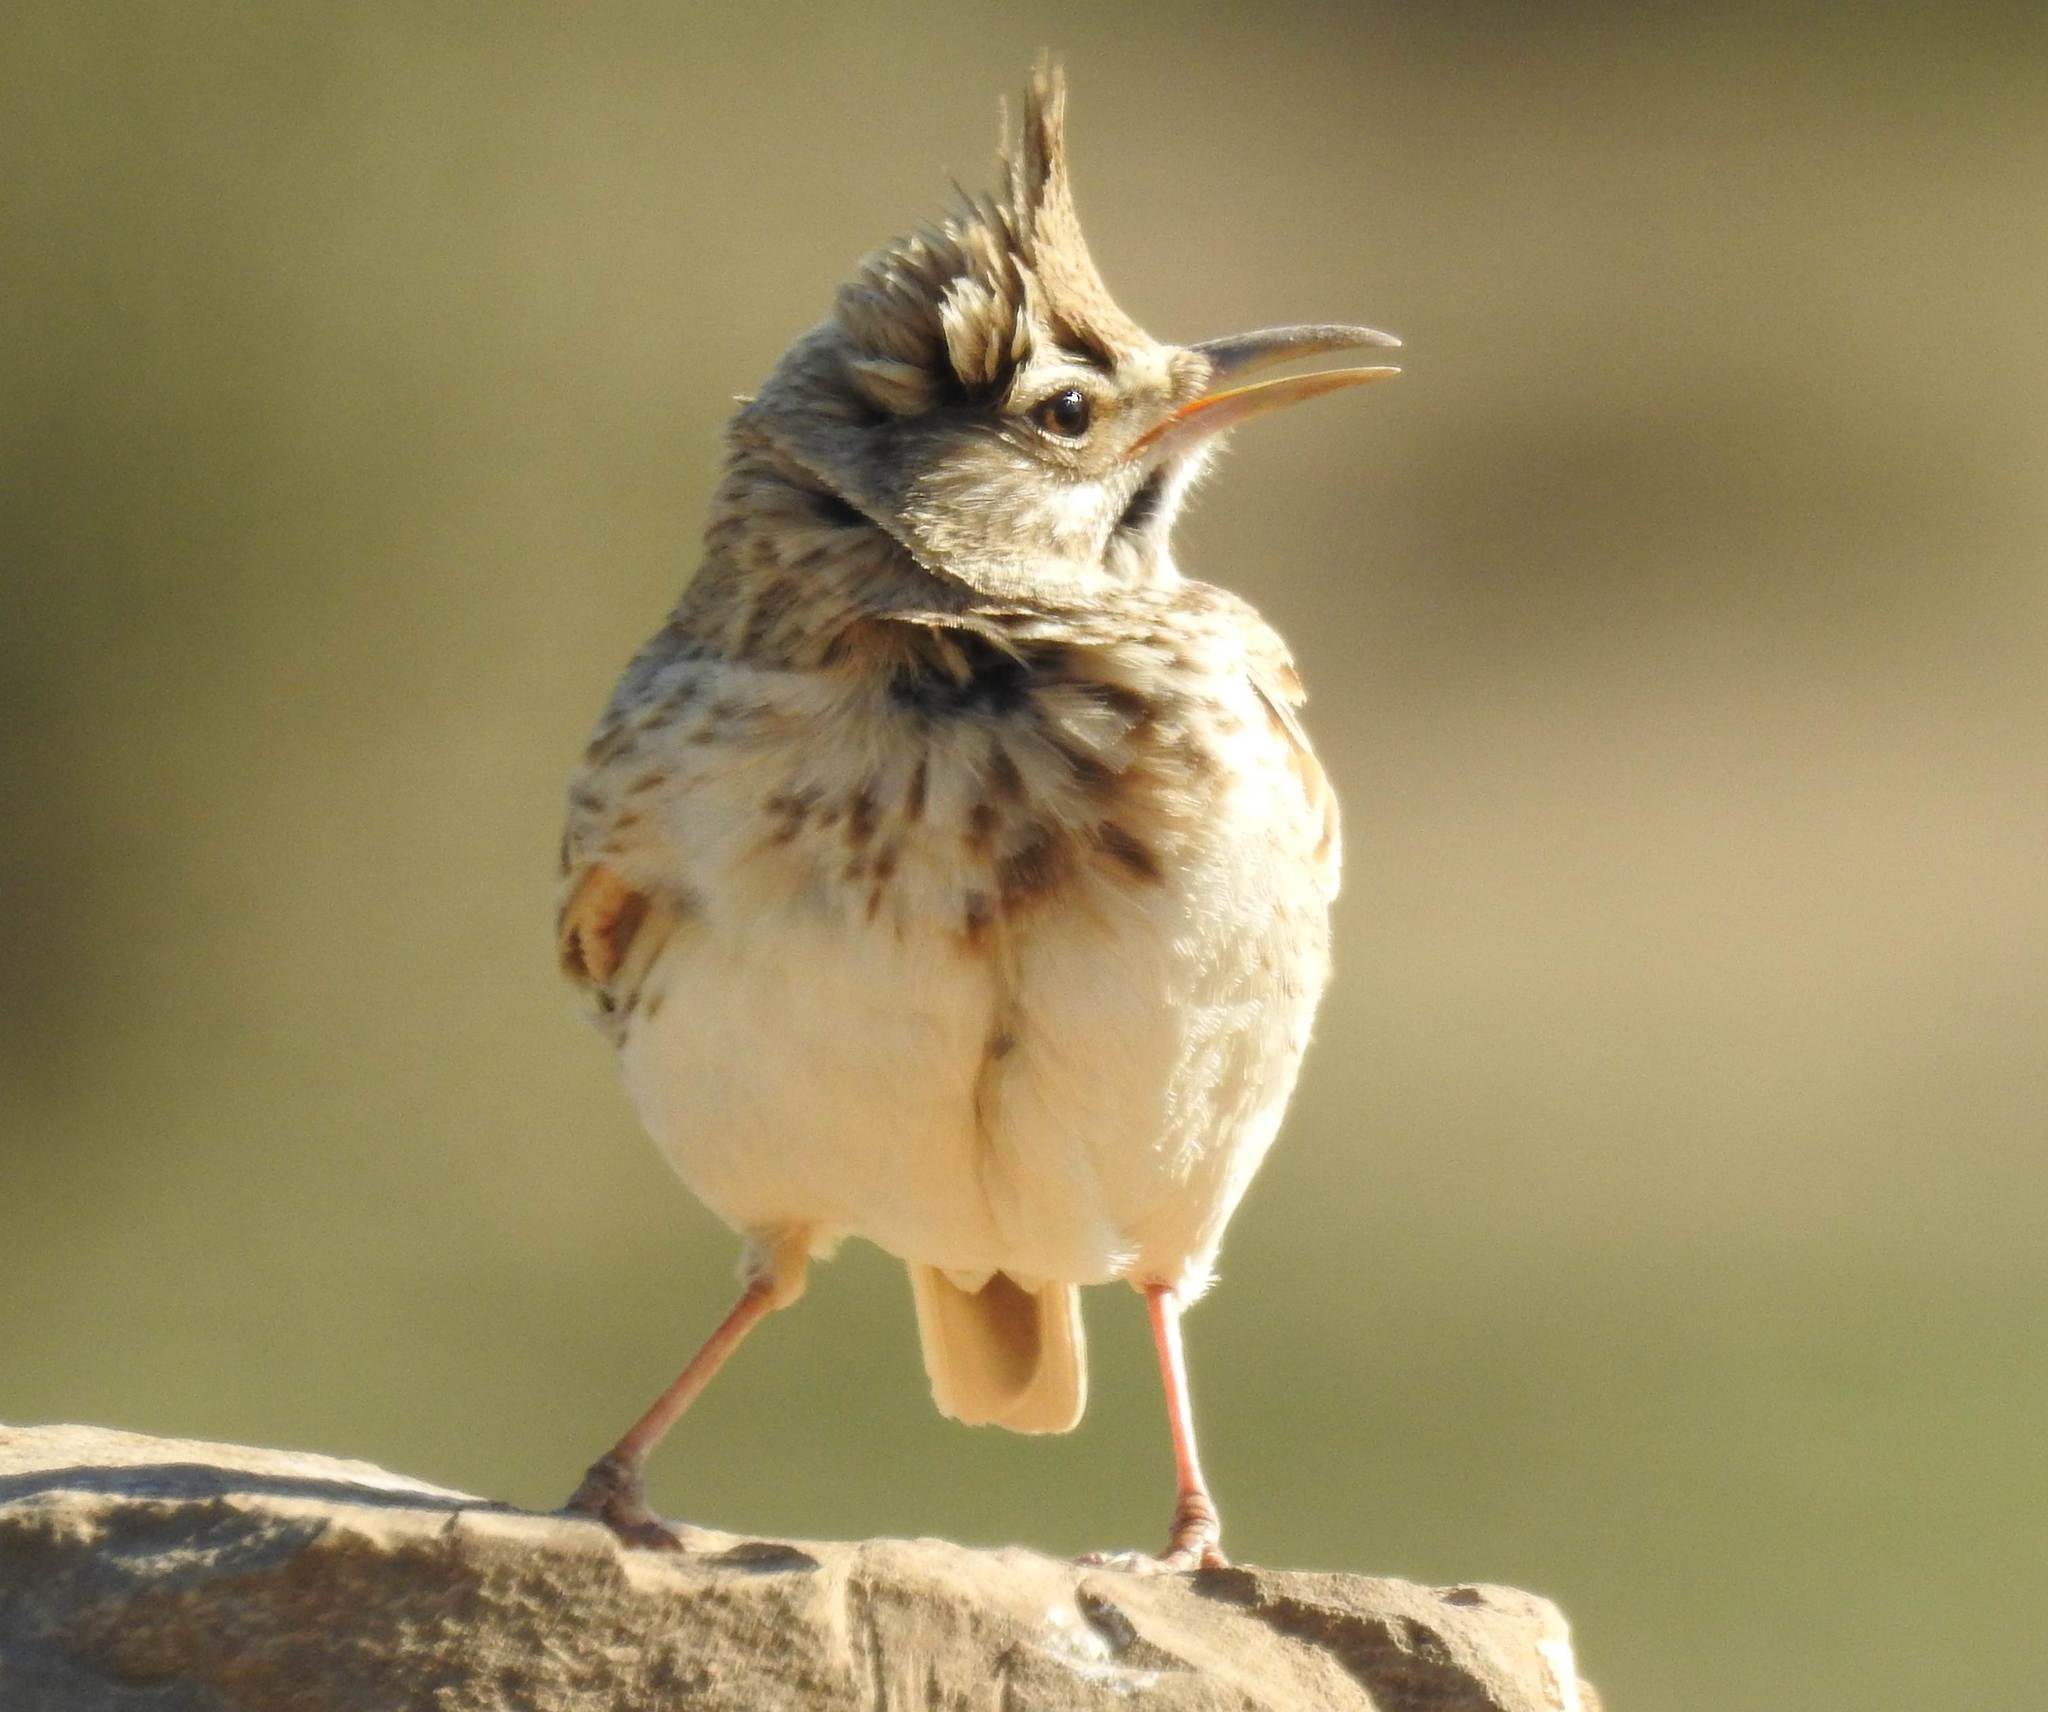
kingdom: Animalia
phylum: Chordata
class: Aves
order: Passeriformes
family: Alaudidae
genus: Galerida
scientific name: Galerida cristata
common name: Crested lark
